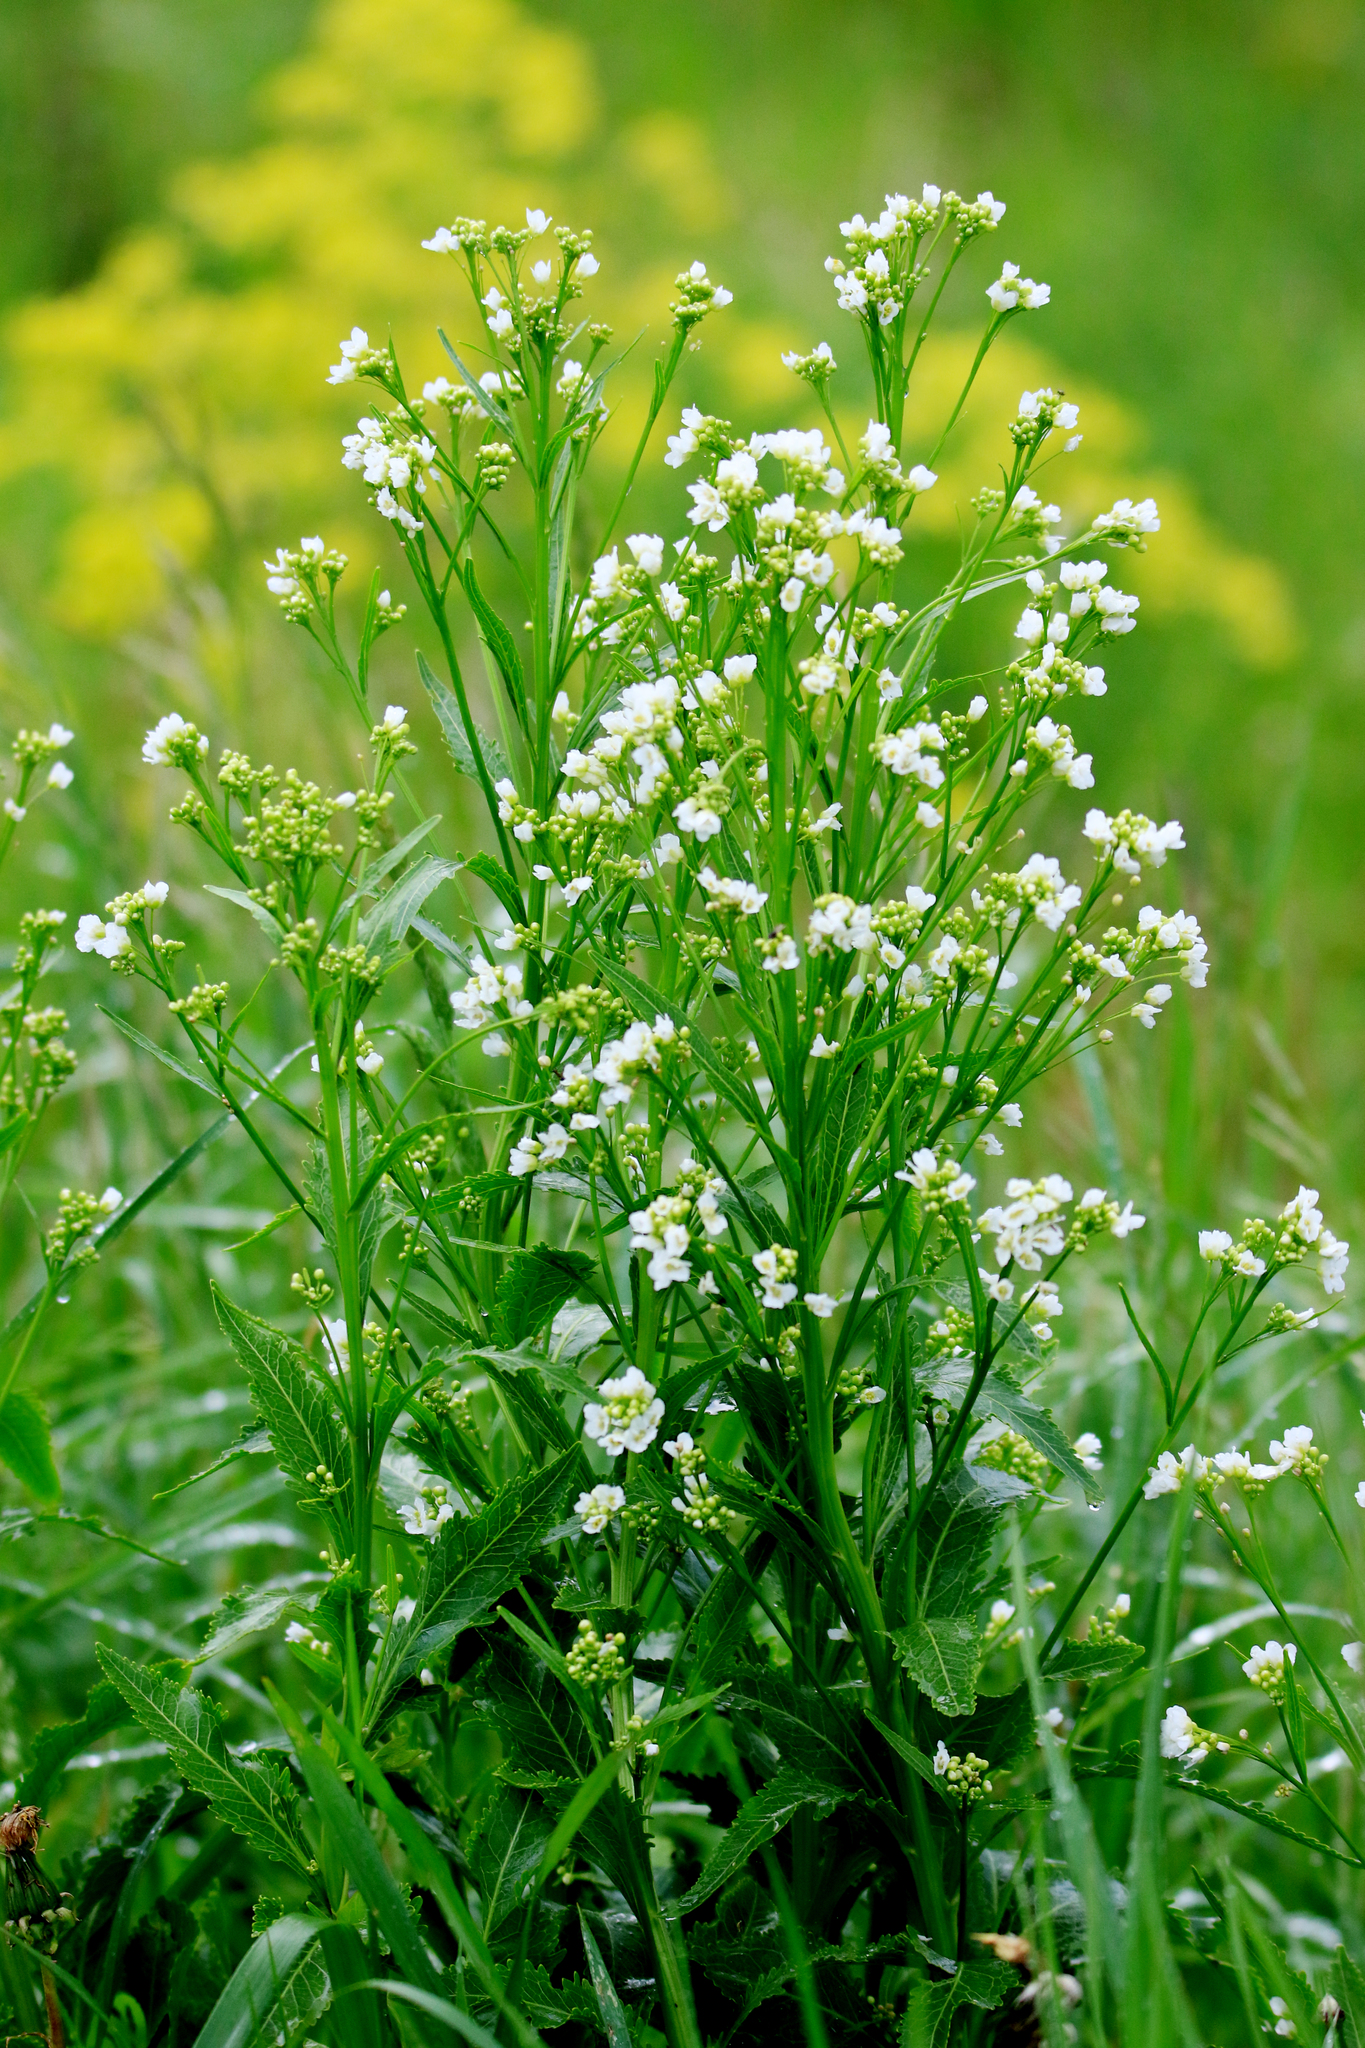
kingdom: Plantae
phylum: Tracheophyta
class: Magnoliopsida
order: Brassicales
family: Brassicaceae
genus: Armoracia
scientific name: Armoracia rusticana
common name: Horseradish
